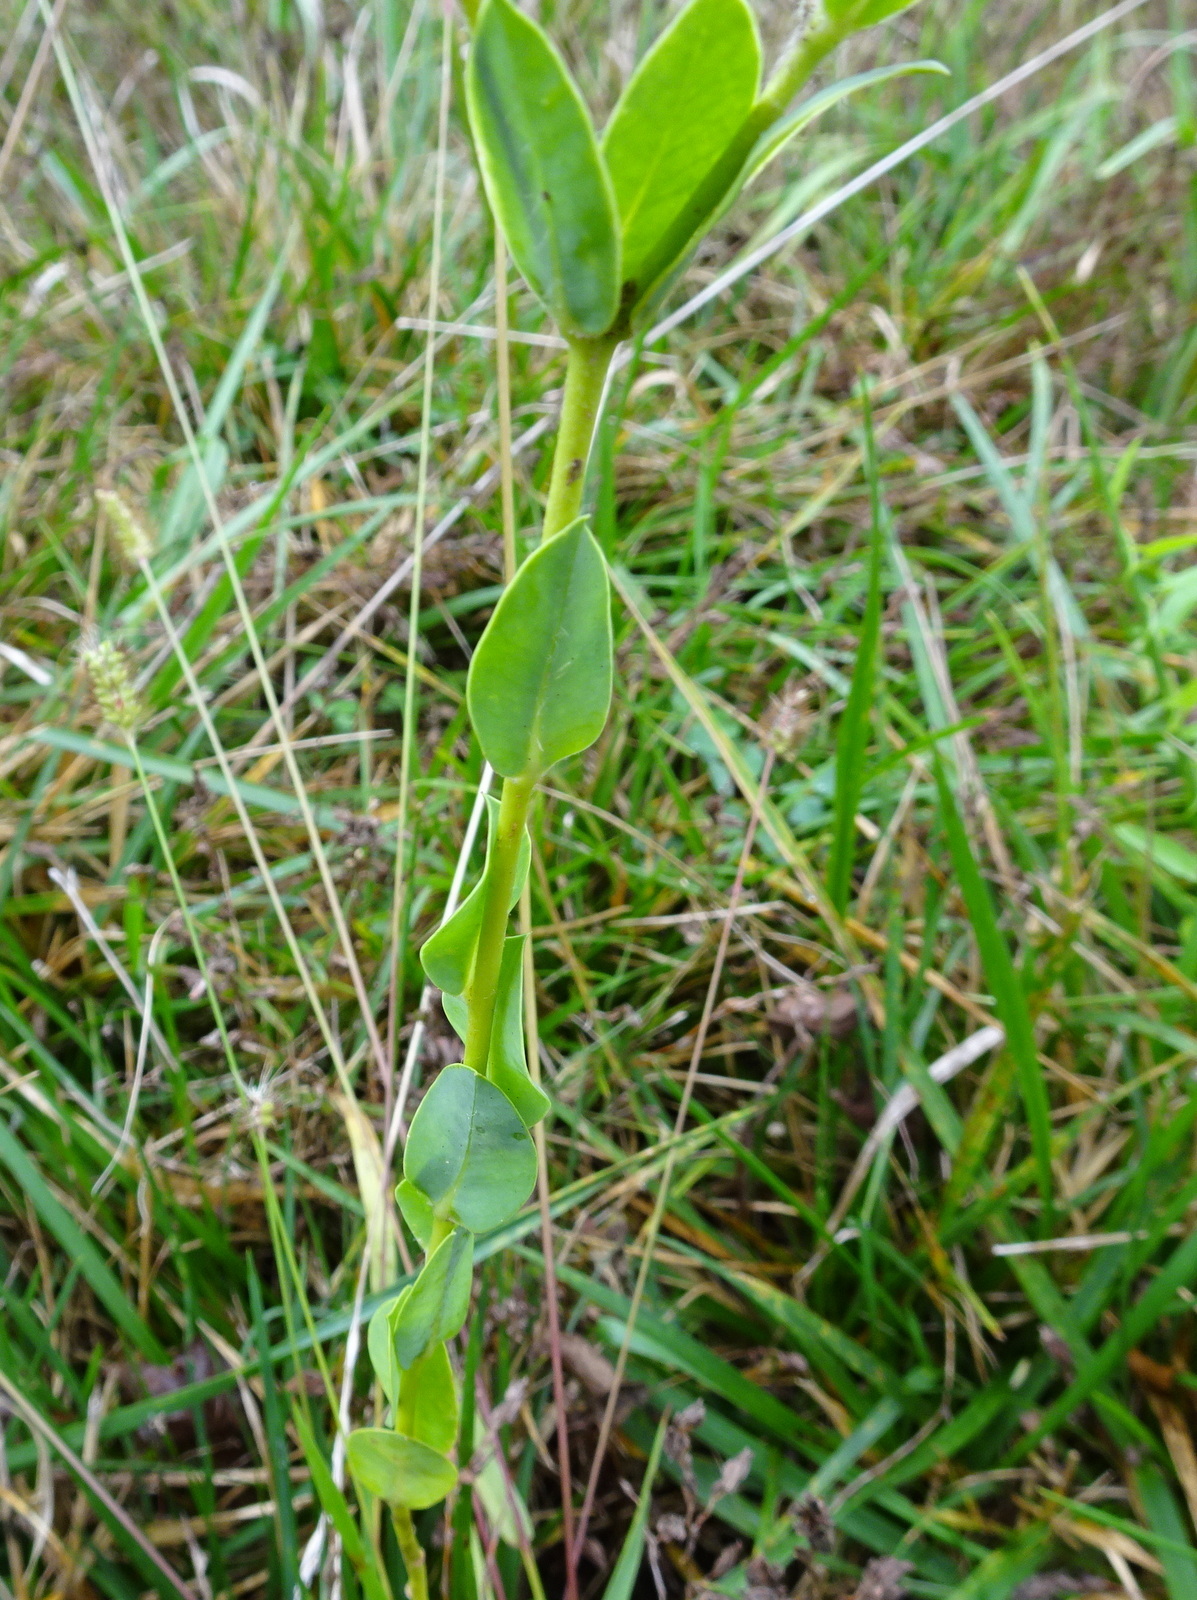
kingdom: Plantae
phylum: Tracheophyta
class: Magnoliopsida
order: Malpighiales
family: Euphorbiaceae
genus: Euphorbia
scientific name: Euphorbia marginata
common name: Ghostweed
